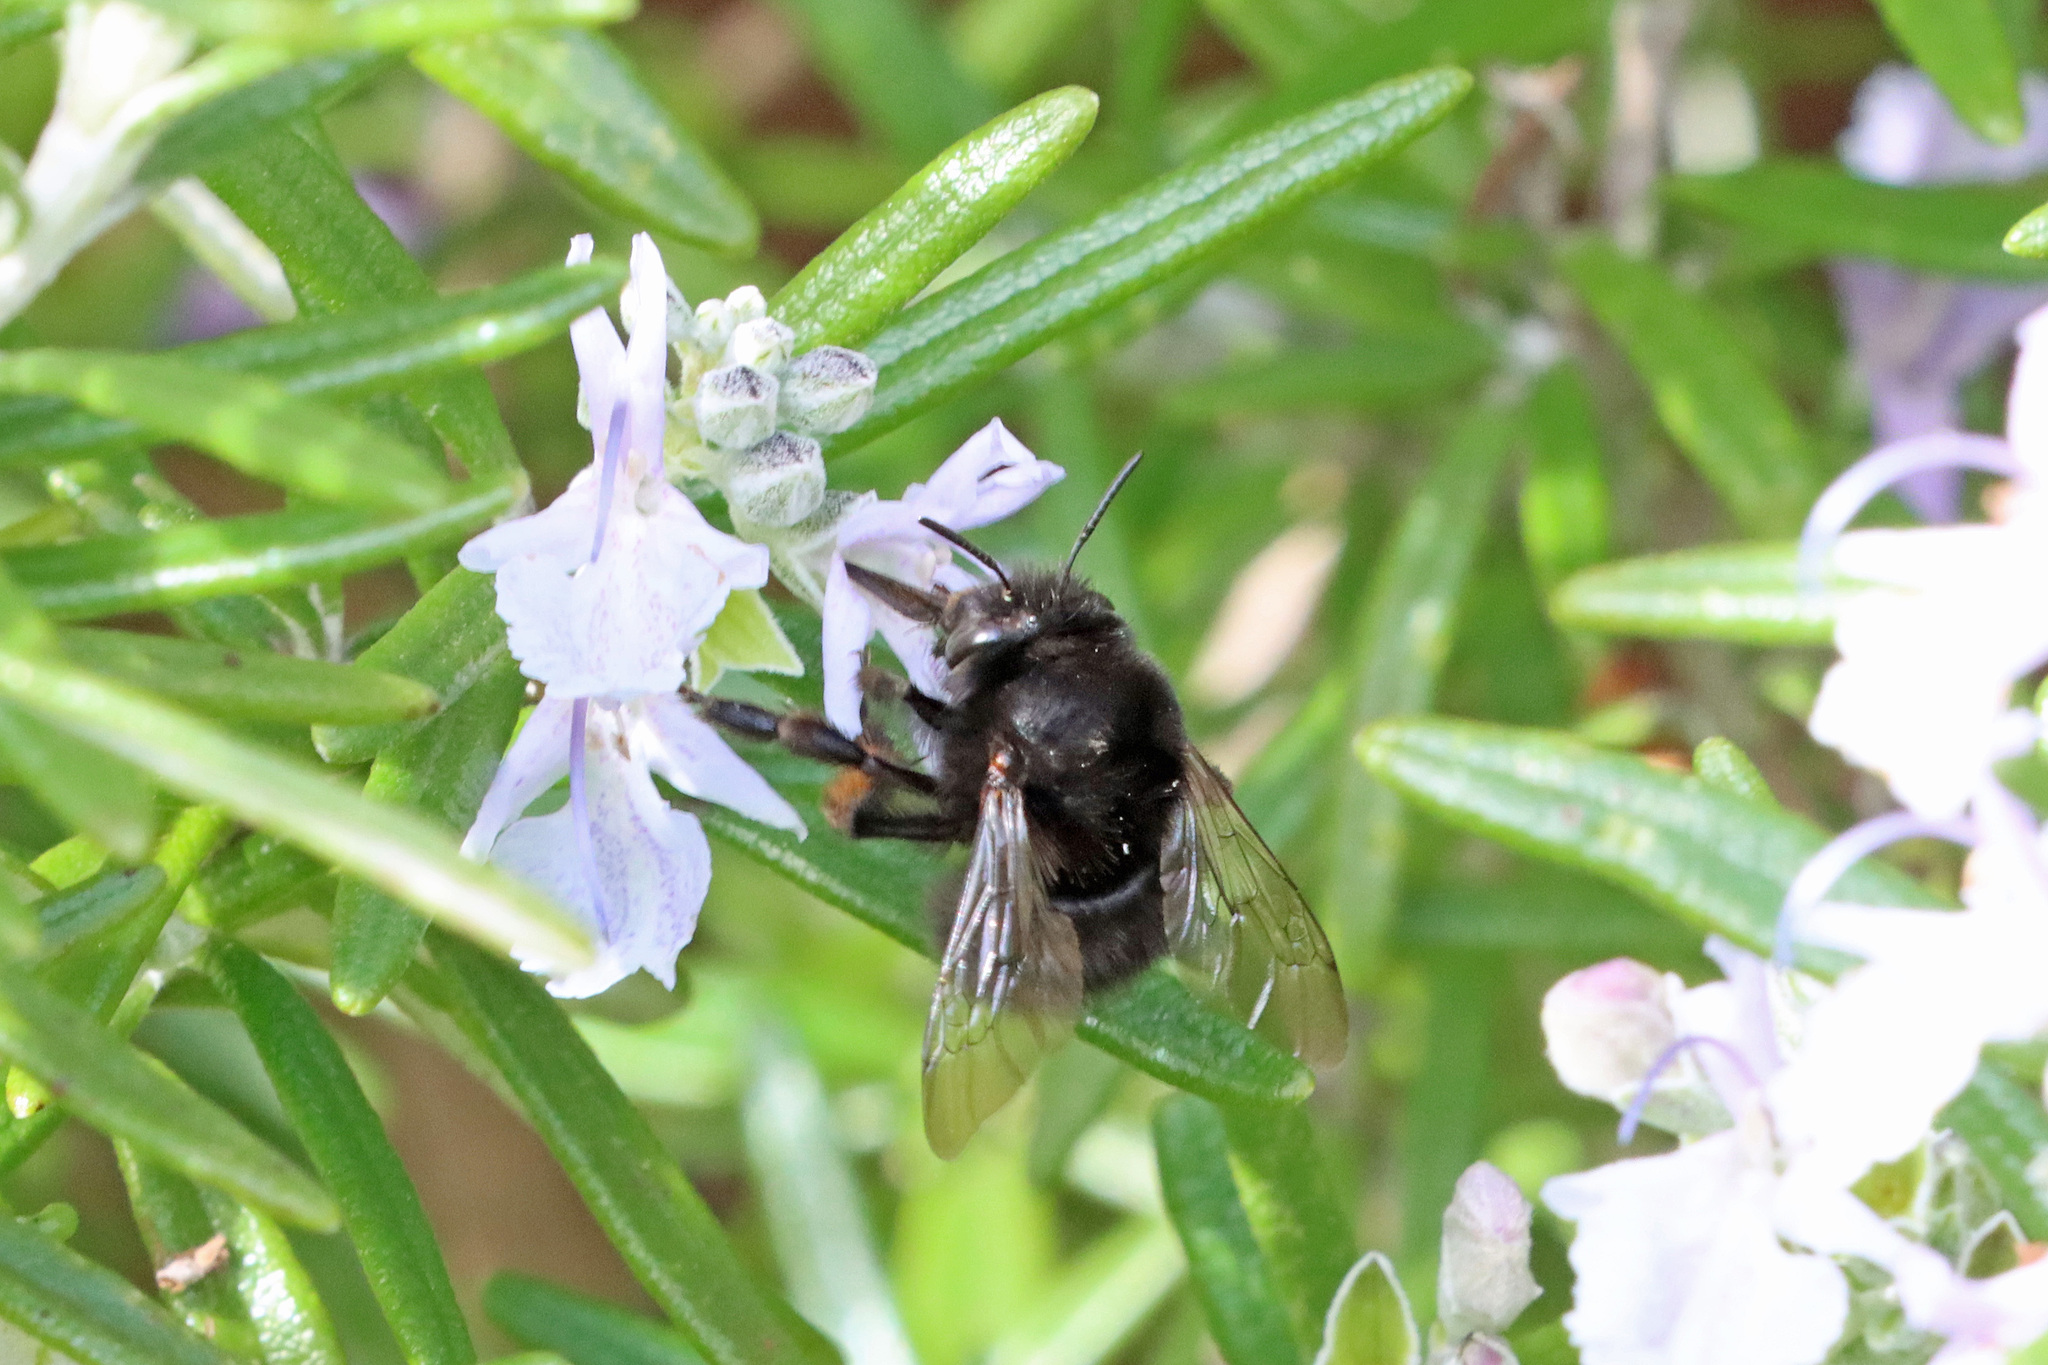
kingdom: Animalia
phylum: Arthropoda
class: Insecta
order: Hymenoptera
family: Apidae
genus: Anthophora
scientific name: Anthophora plumipes
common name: Hairy-footed flower bee
